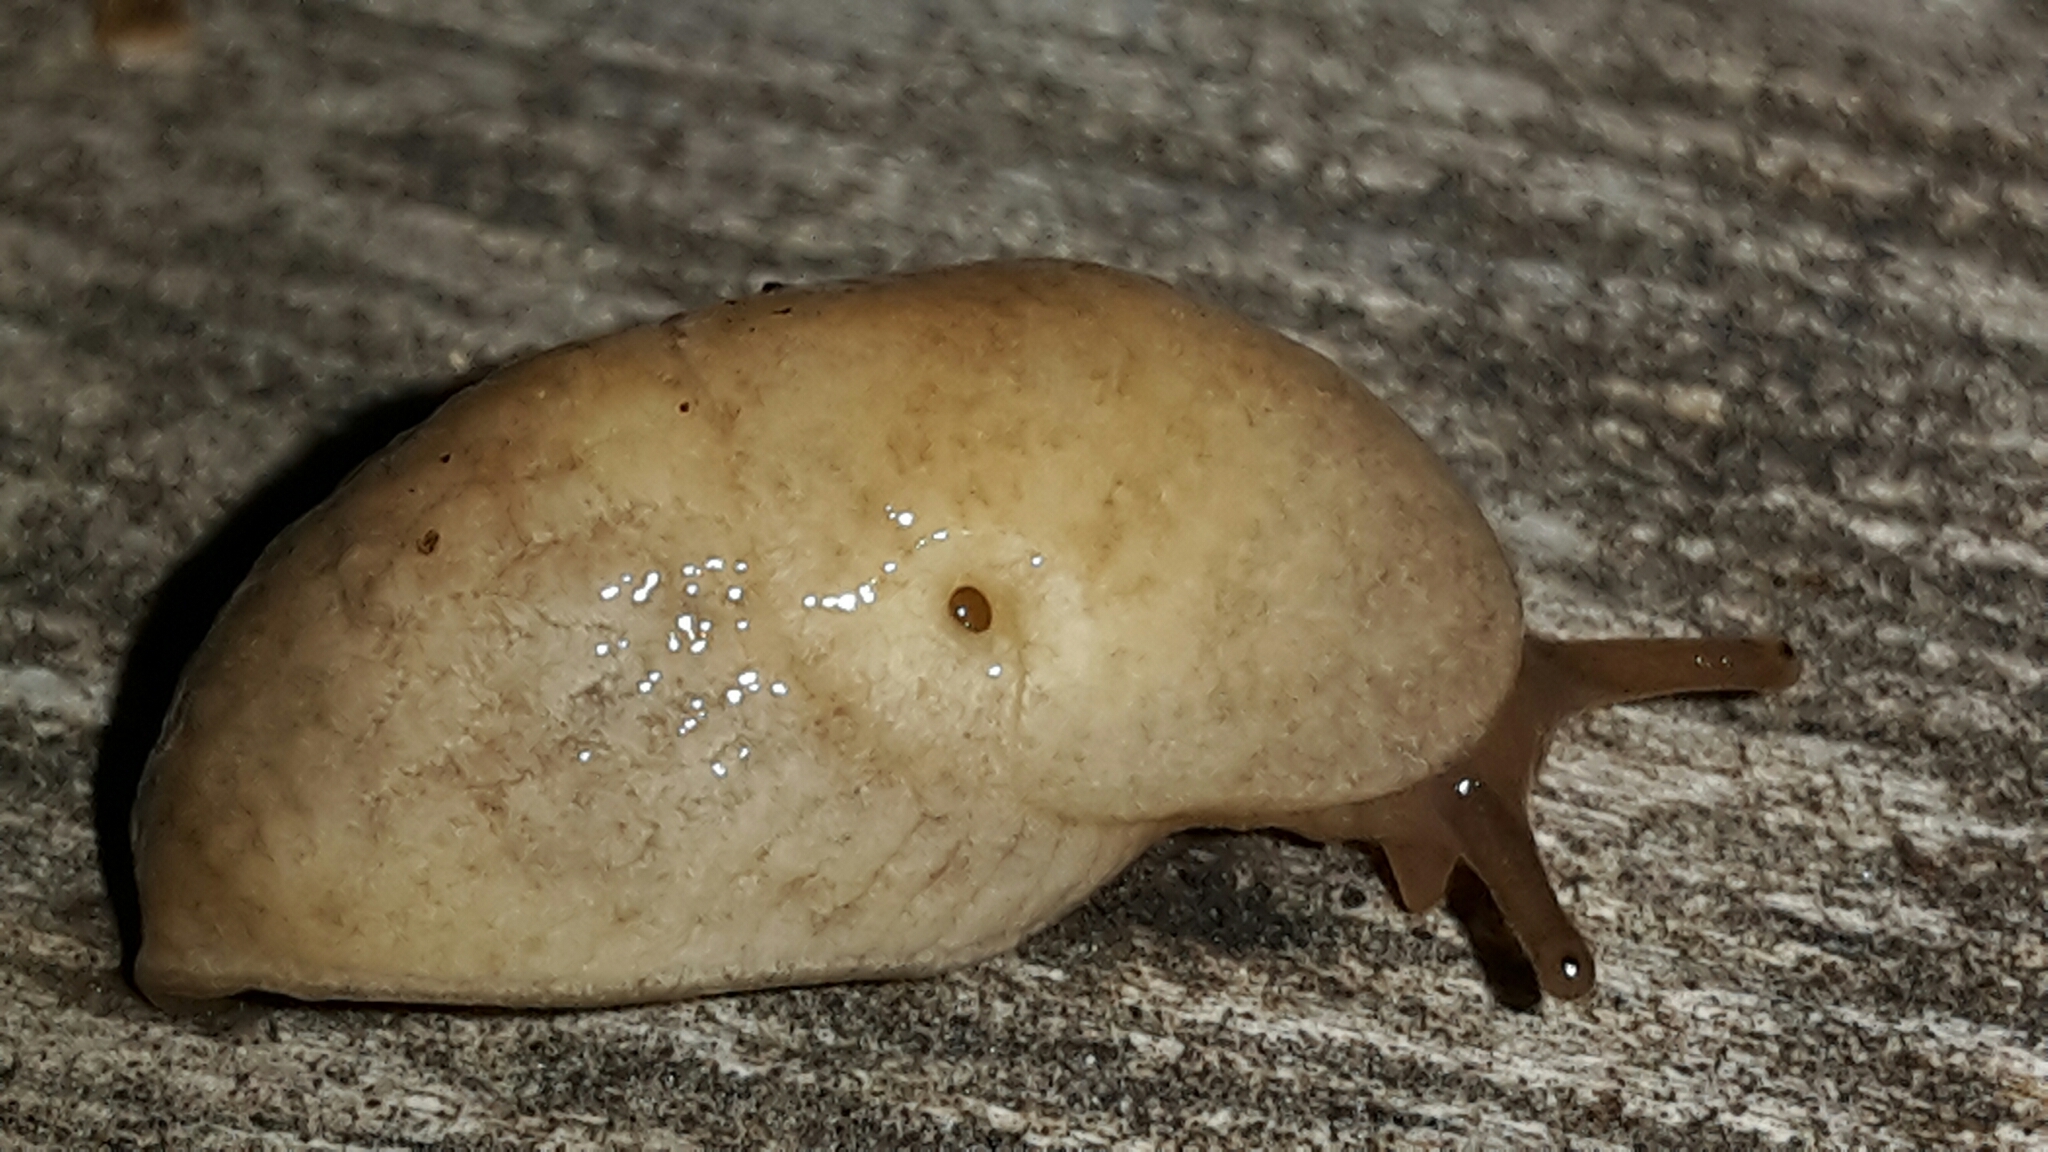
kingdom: Animalia
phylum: Mollusca
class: Gastropoda
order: Stylommatophora
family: Agriolimacidae
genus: Deroceras
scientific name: Deroceras reticulatum
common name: Gray field slug
